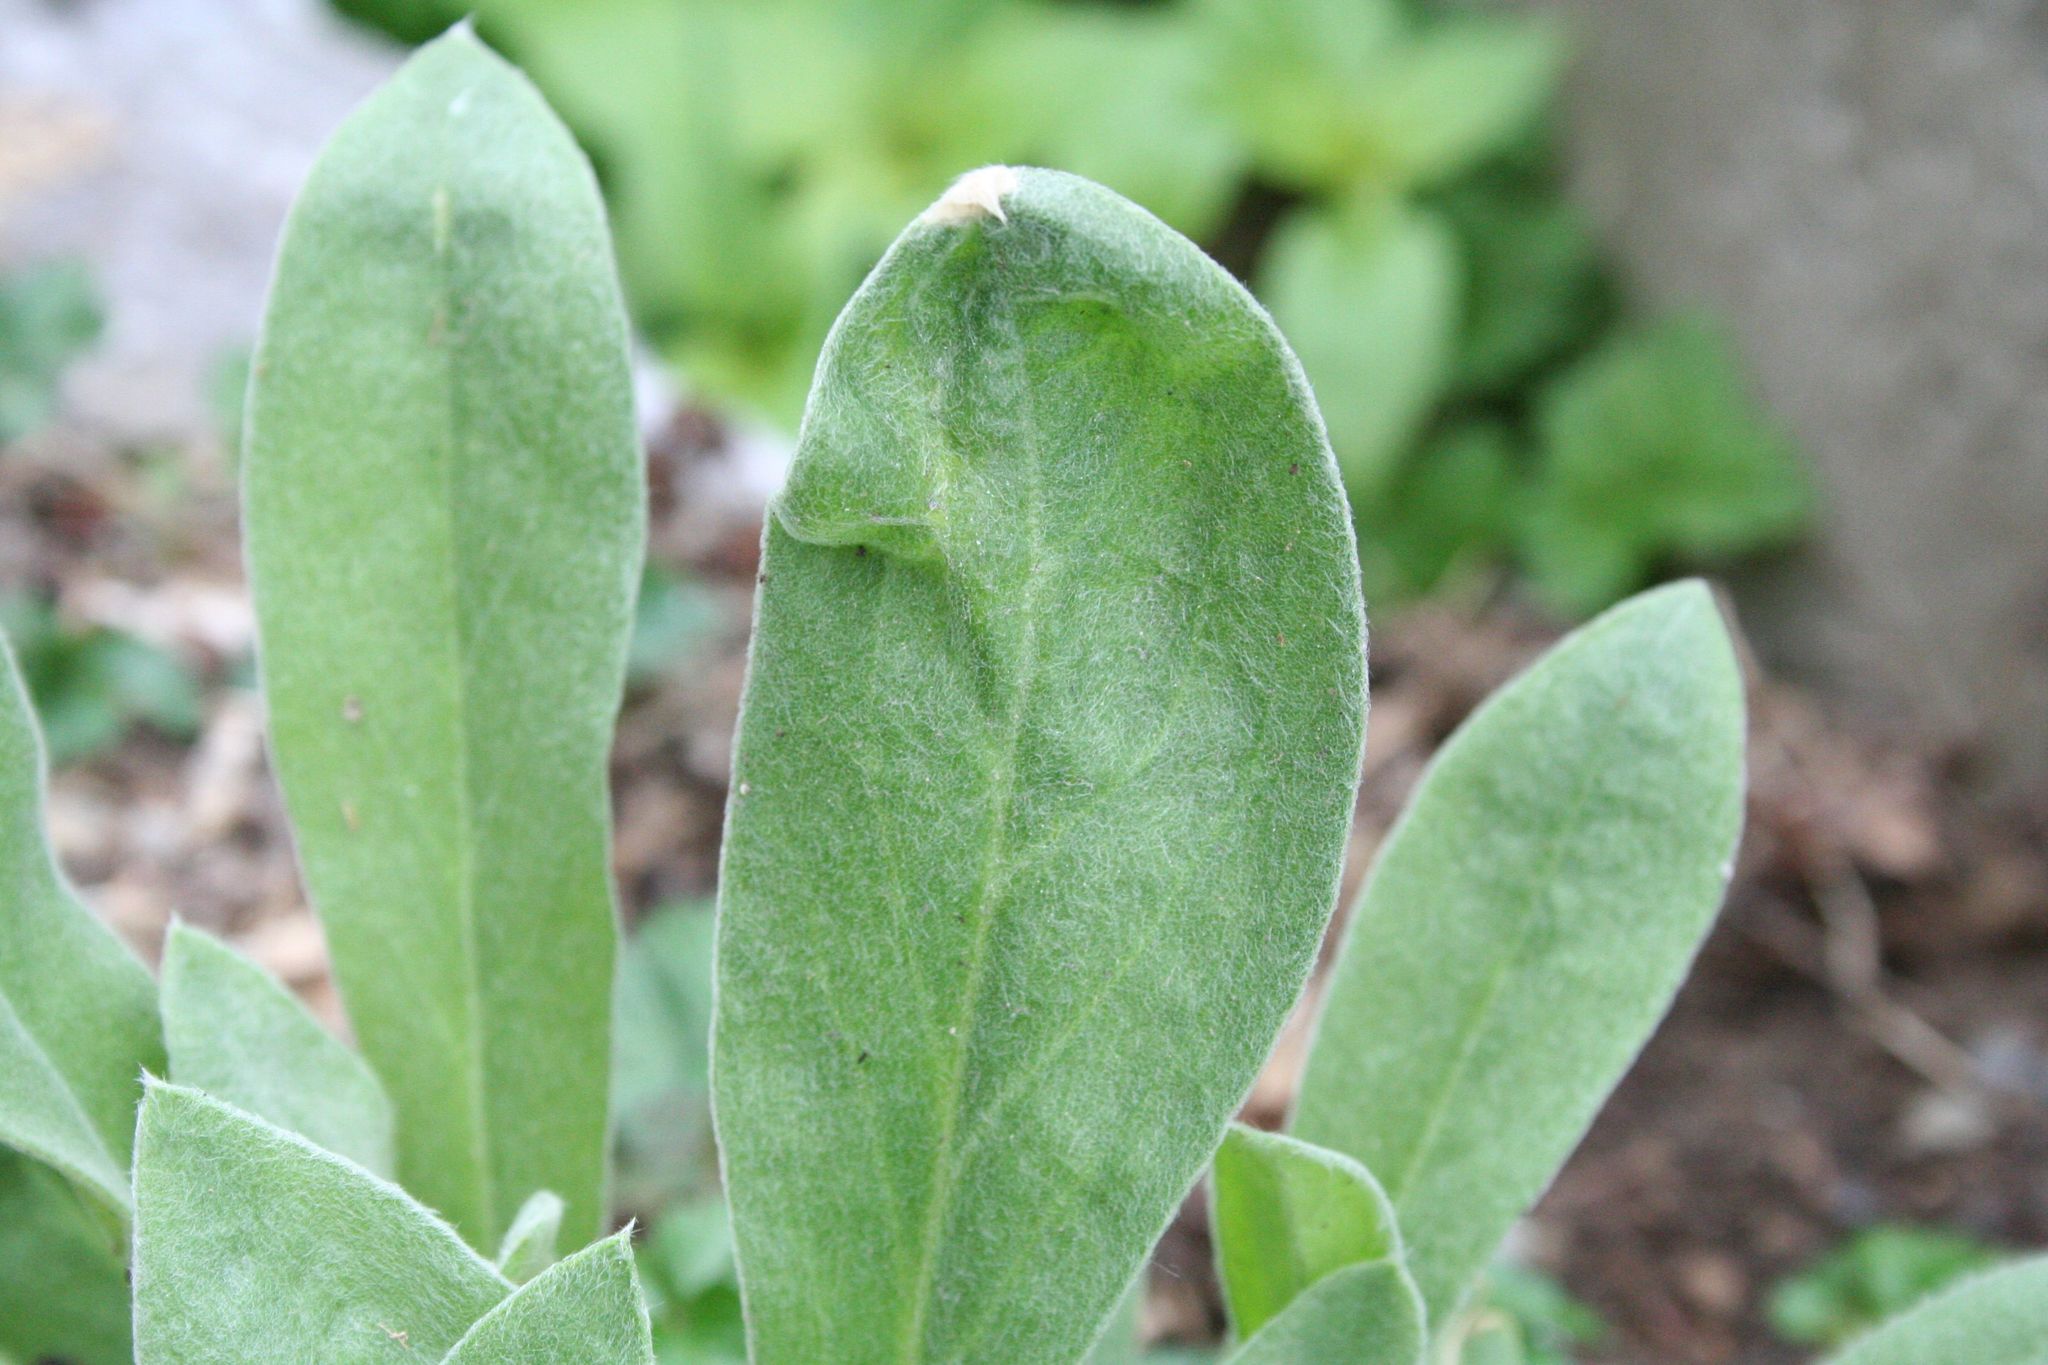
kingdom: Plantae
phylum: Tracheophyta
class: Magnoliopsida
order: Asterales
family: Asteraceae
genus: Centaurea
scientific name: Centaurea triumfettii
